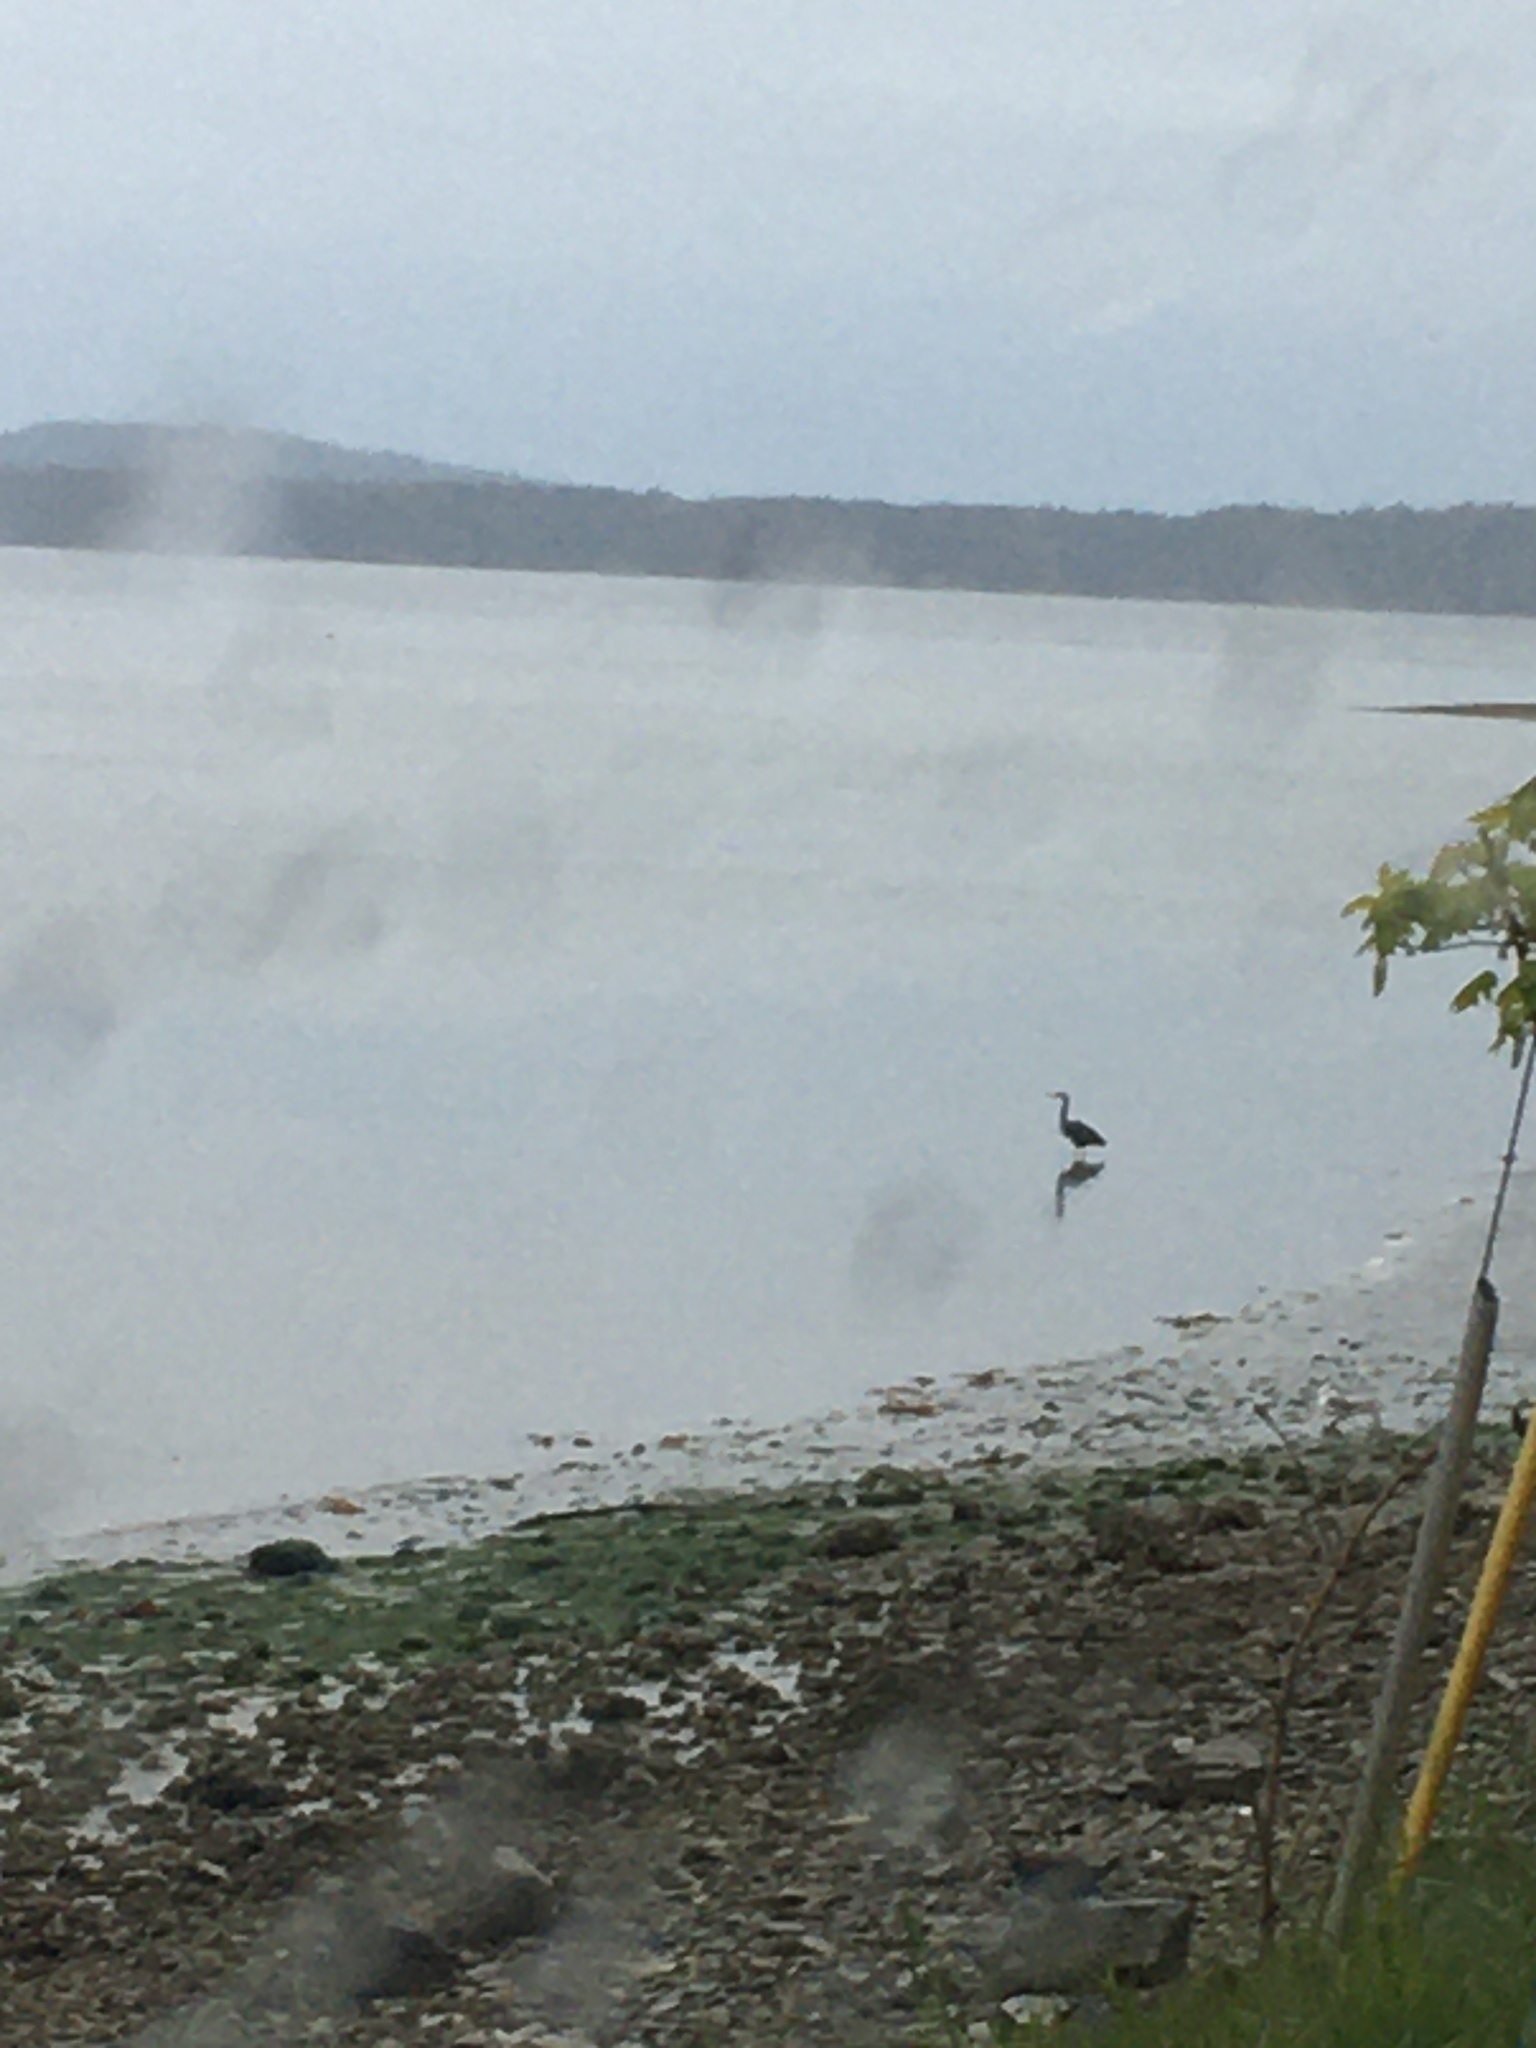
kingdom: Animalia
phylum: Chordata
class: Aves
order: Pelecaniformes
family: Ardeidae
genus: Ardea
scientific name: Ardea herodias
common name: Great blue heron
